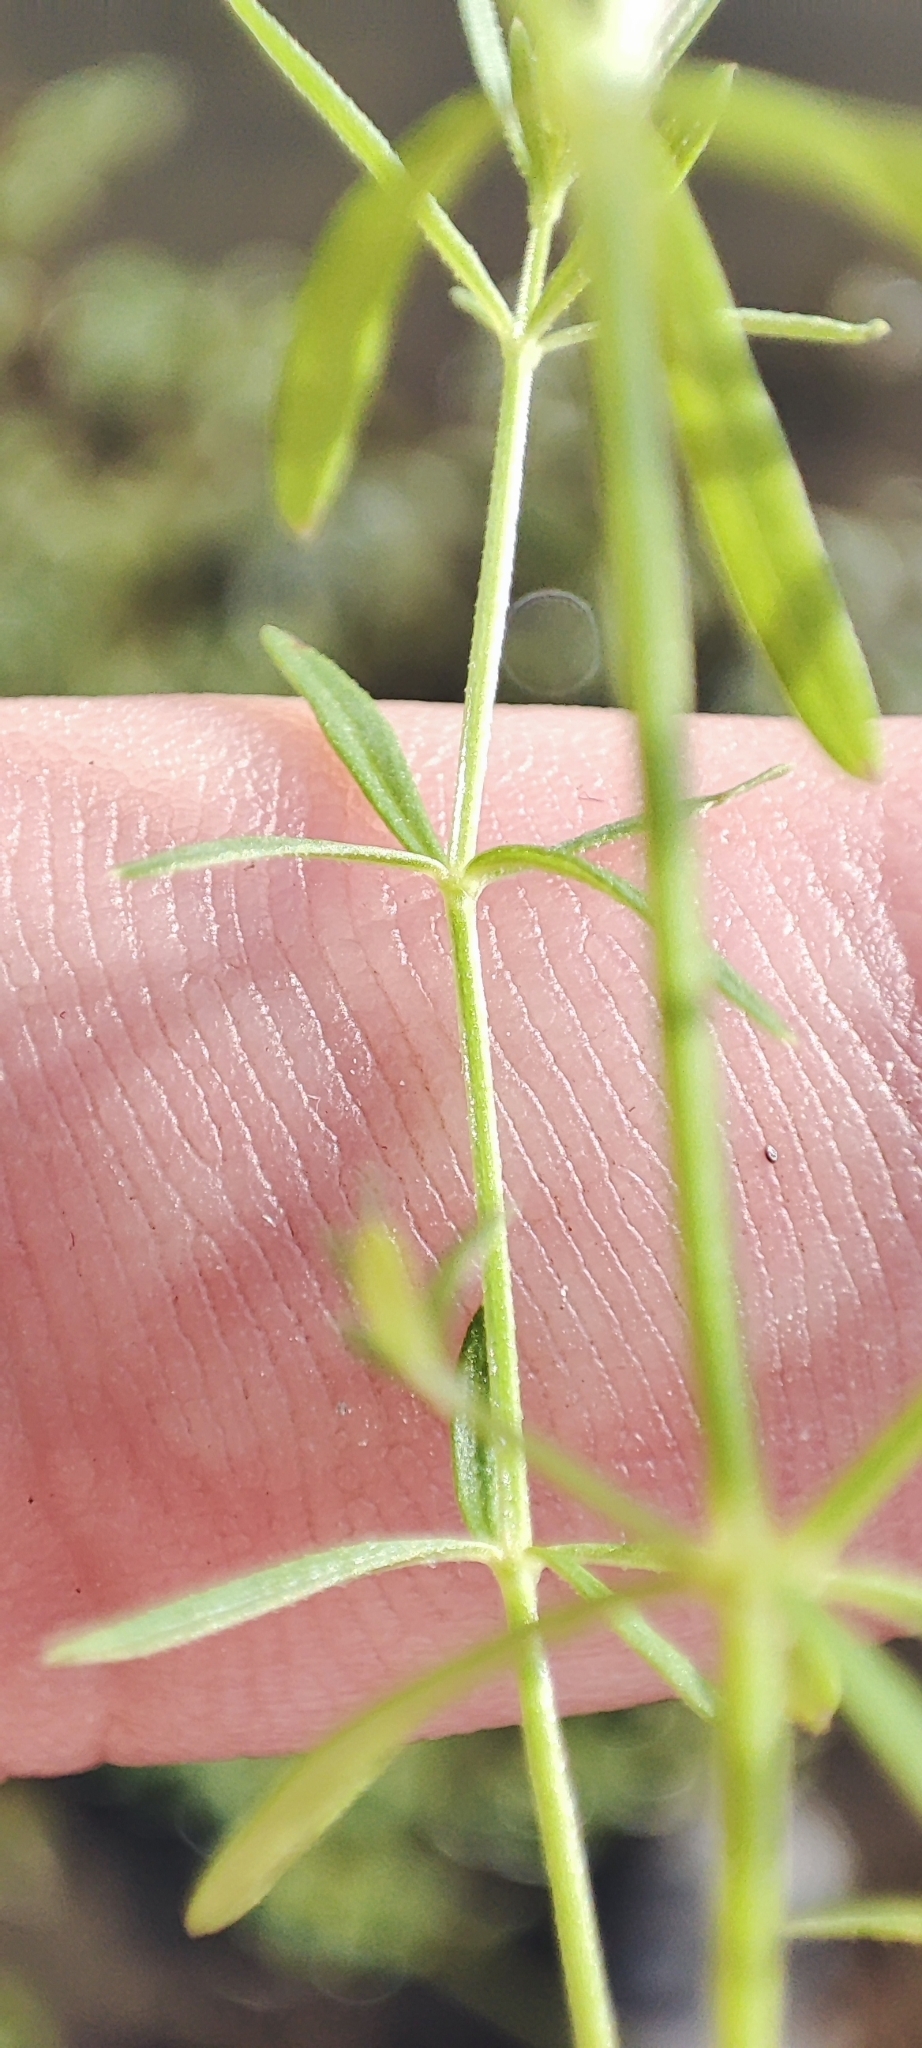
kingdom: Plantae
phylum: Tracheophyta
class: Magnoliopsida
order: Gentianales
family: Rubiaceae
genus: Galium
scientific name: Galium palustre
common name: Common marsh-bedstraw
